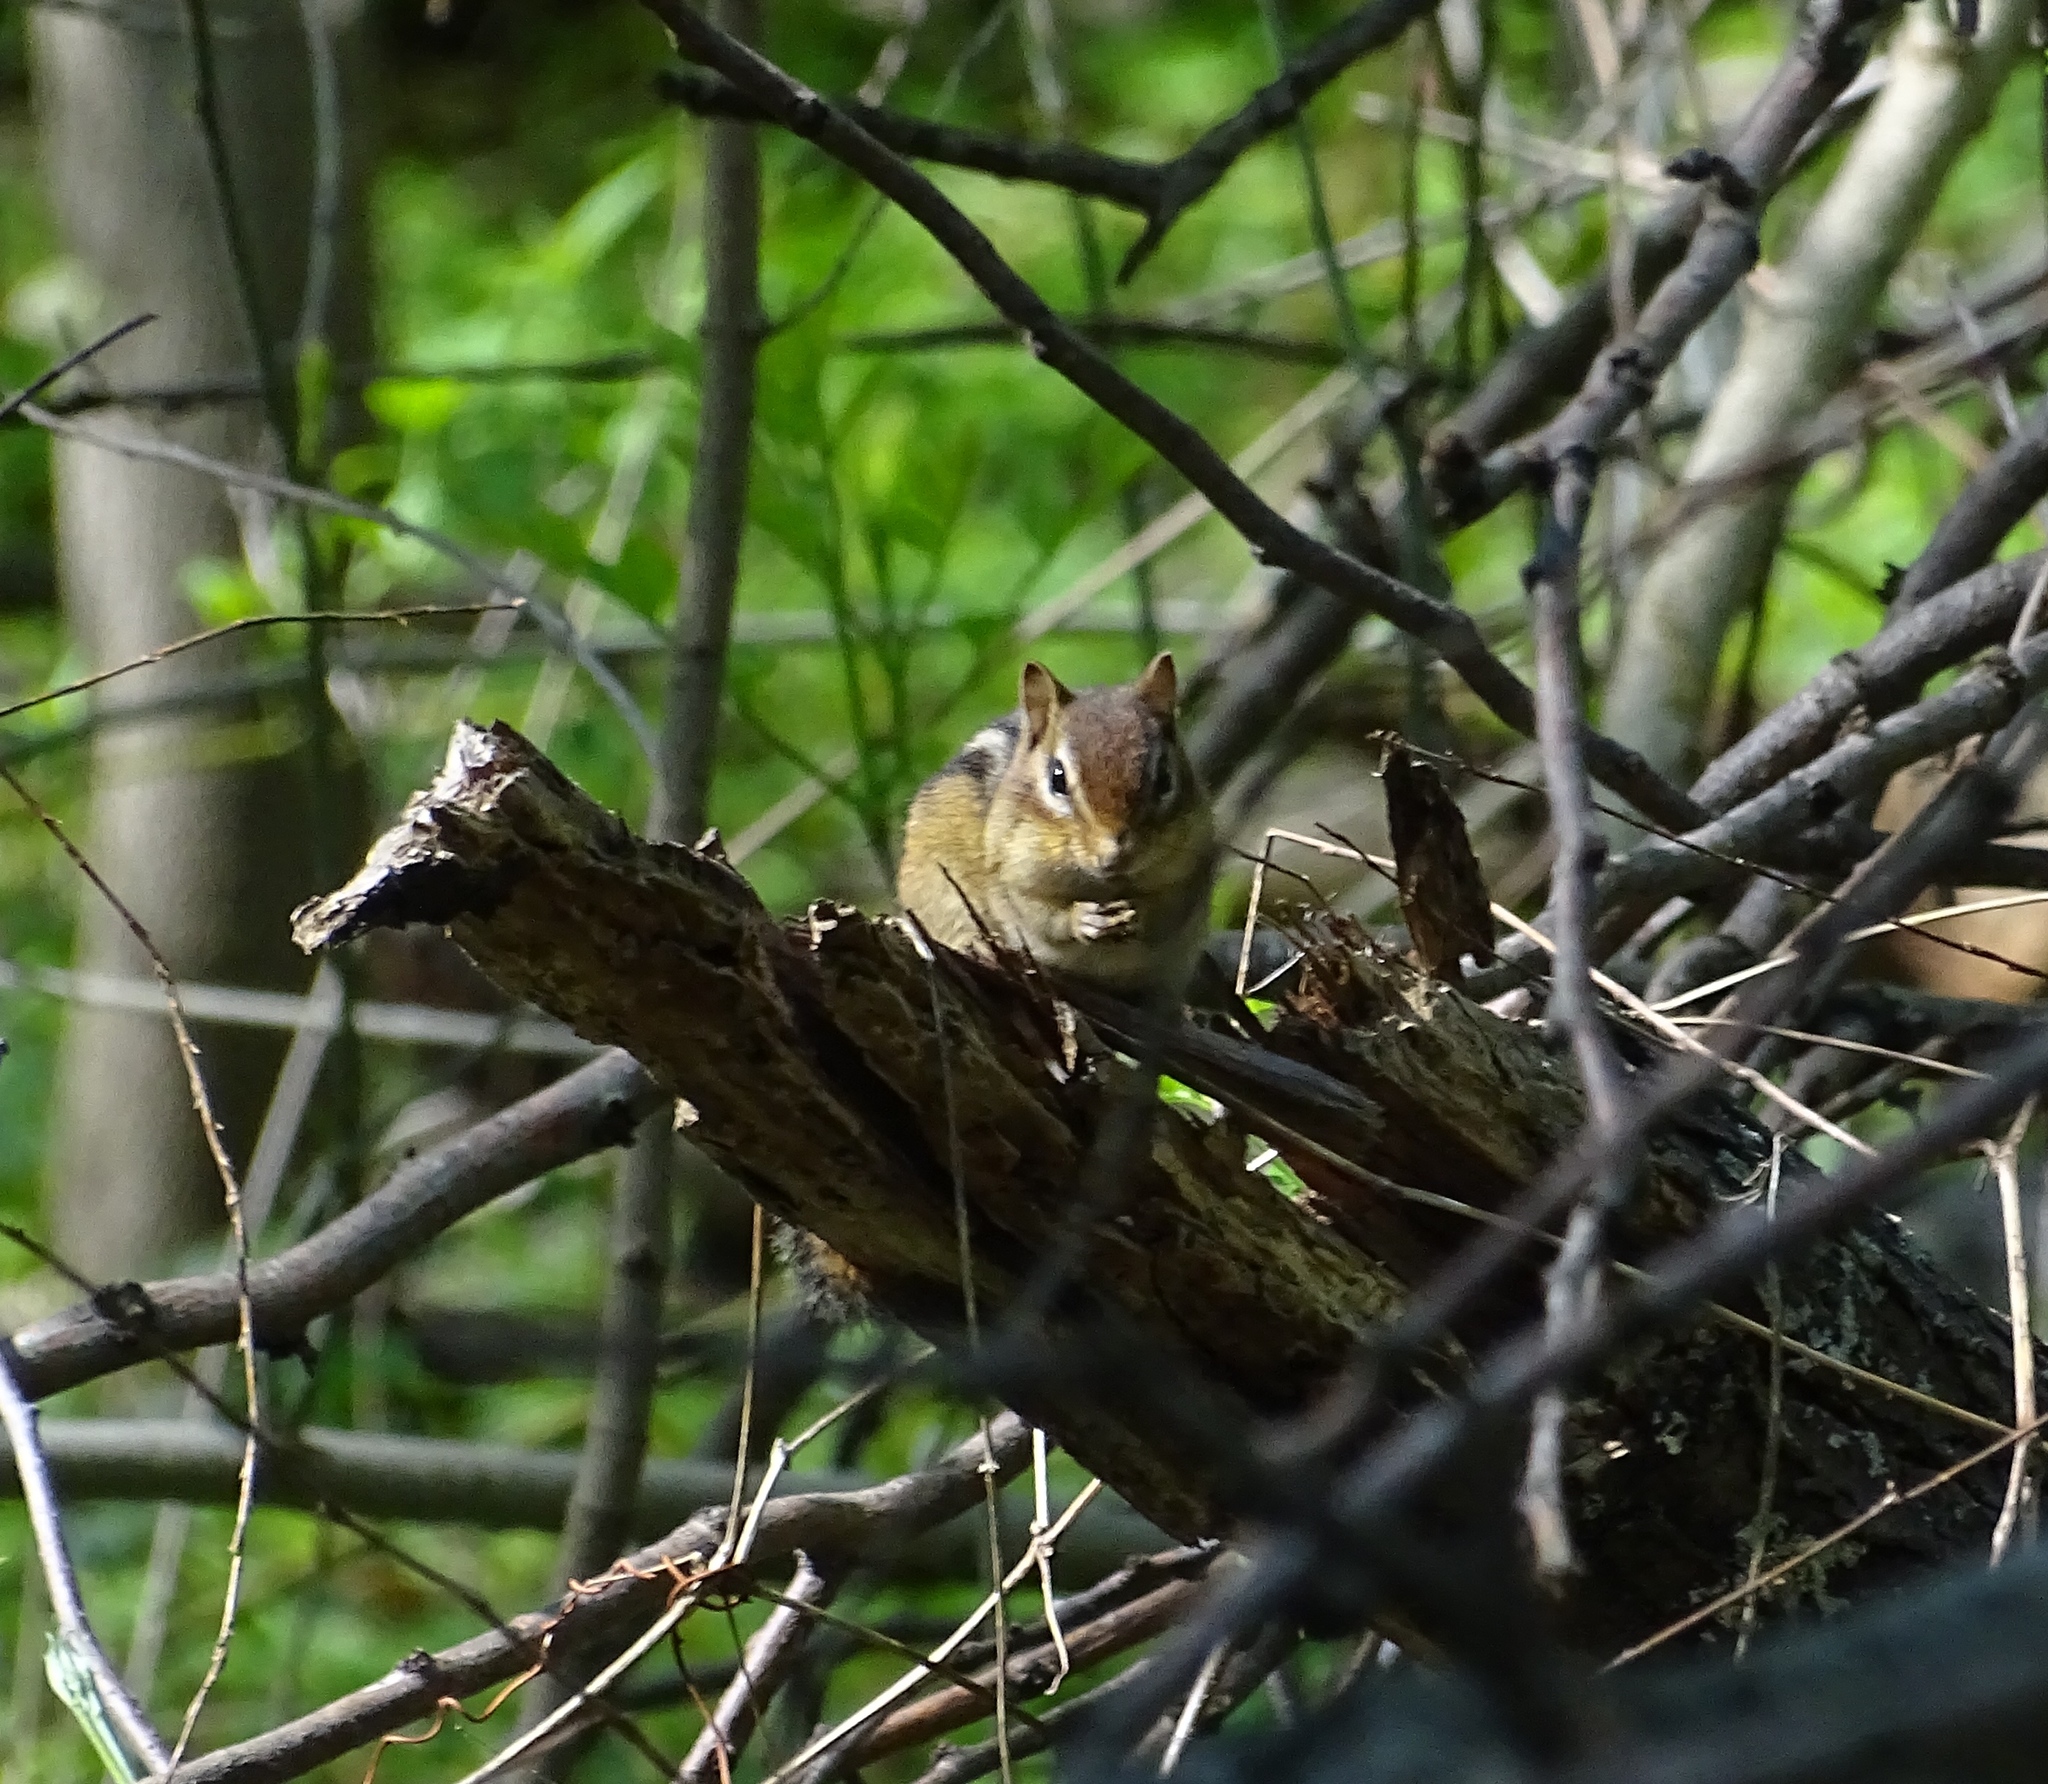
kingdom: Animalia
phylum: Chordata
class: Mammalia
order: Rodentia
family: Sciuridae
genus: Tamias
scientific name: Tamias striatus
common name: Eastern chipmunk
